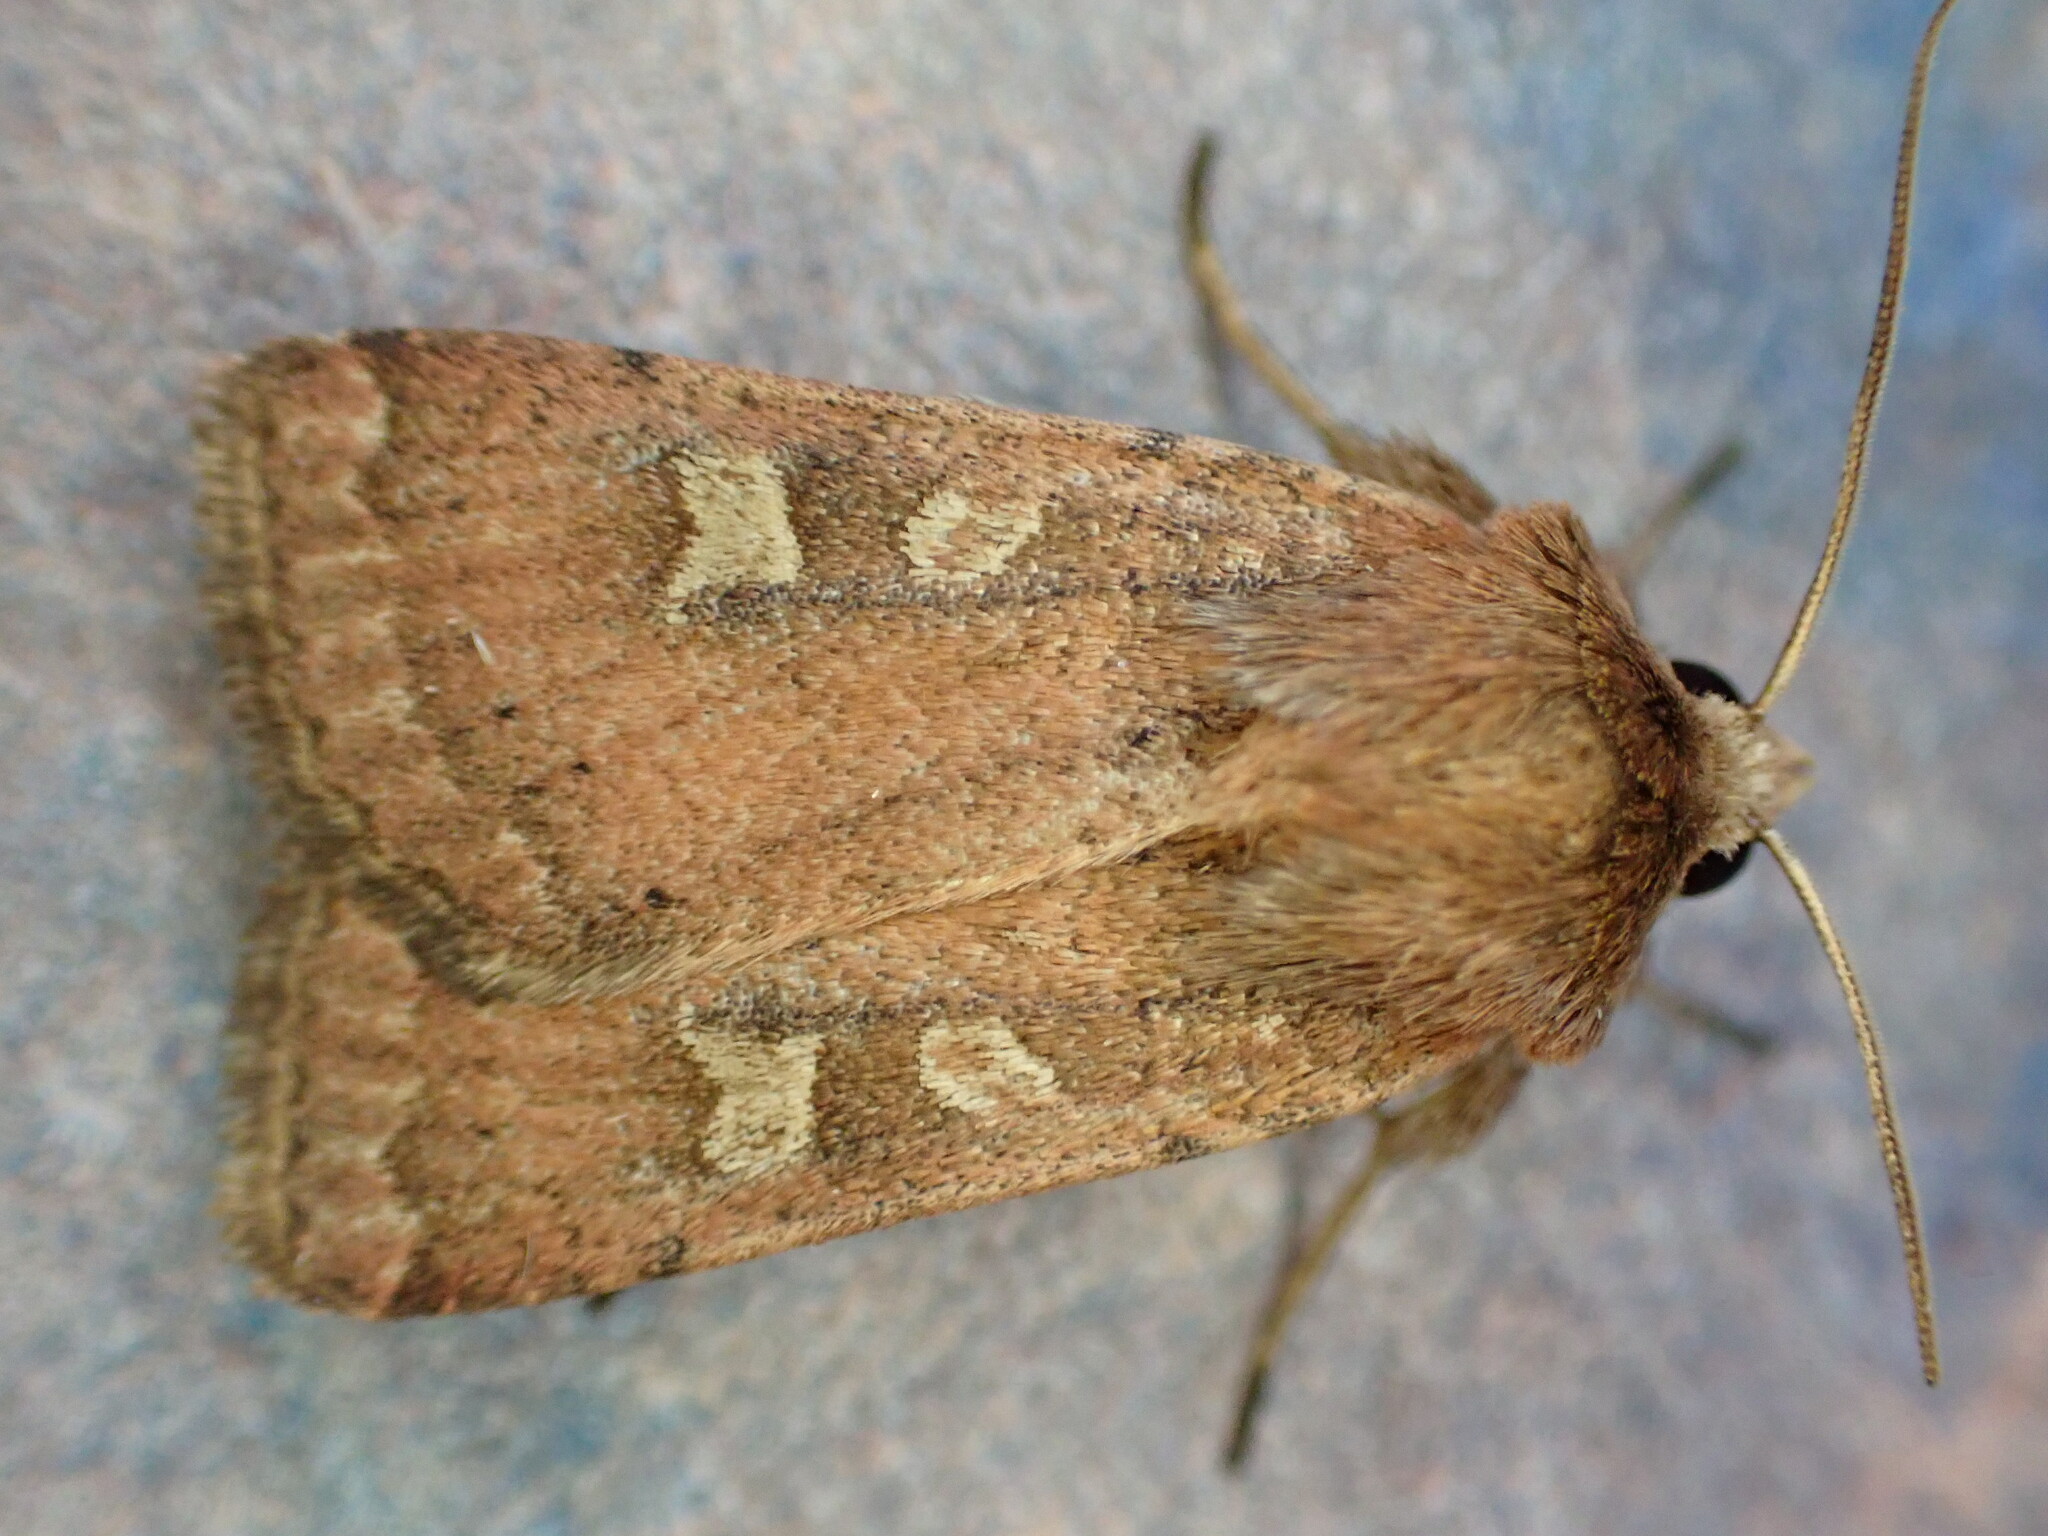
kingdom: Animalia
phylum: Arthropoda
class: Insecta
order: Lepidoptera
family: Noctuidae
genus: Xestia
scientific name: Xestia xanthographa
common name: Square-spot rustic
